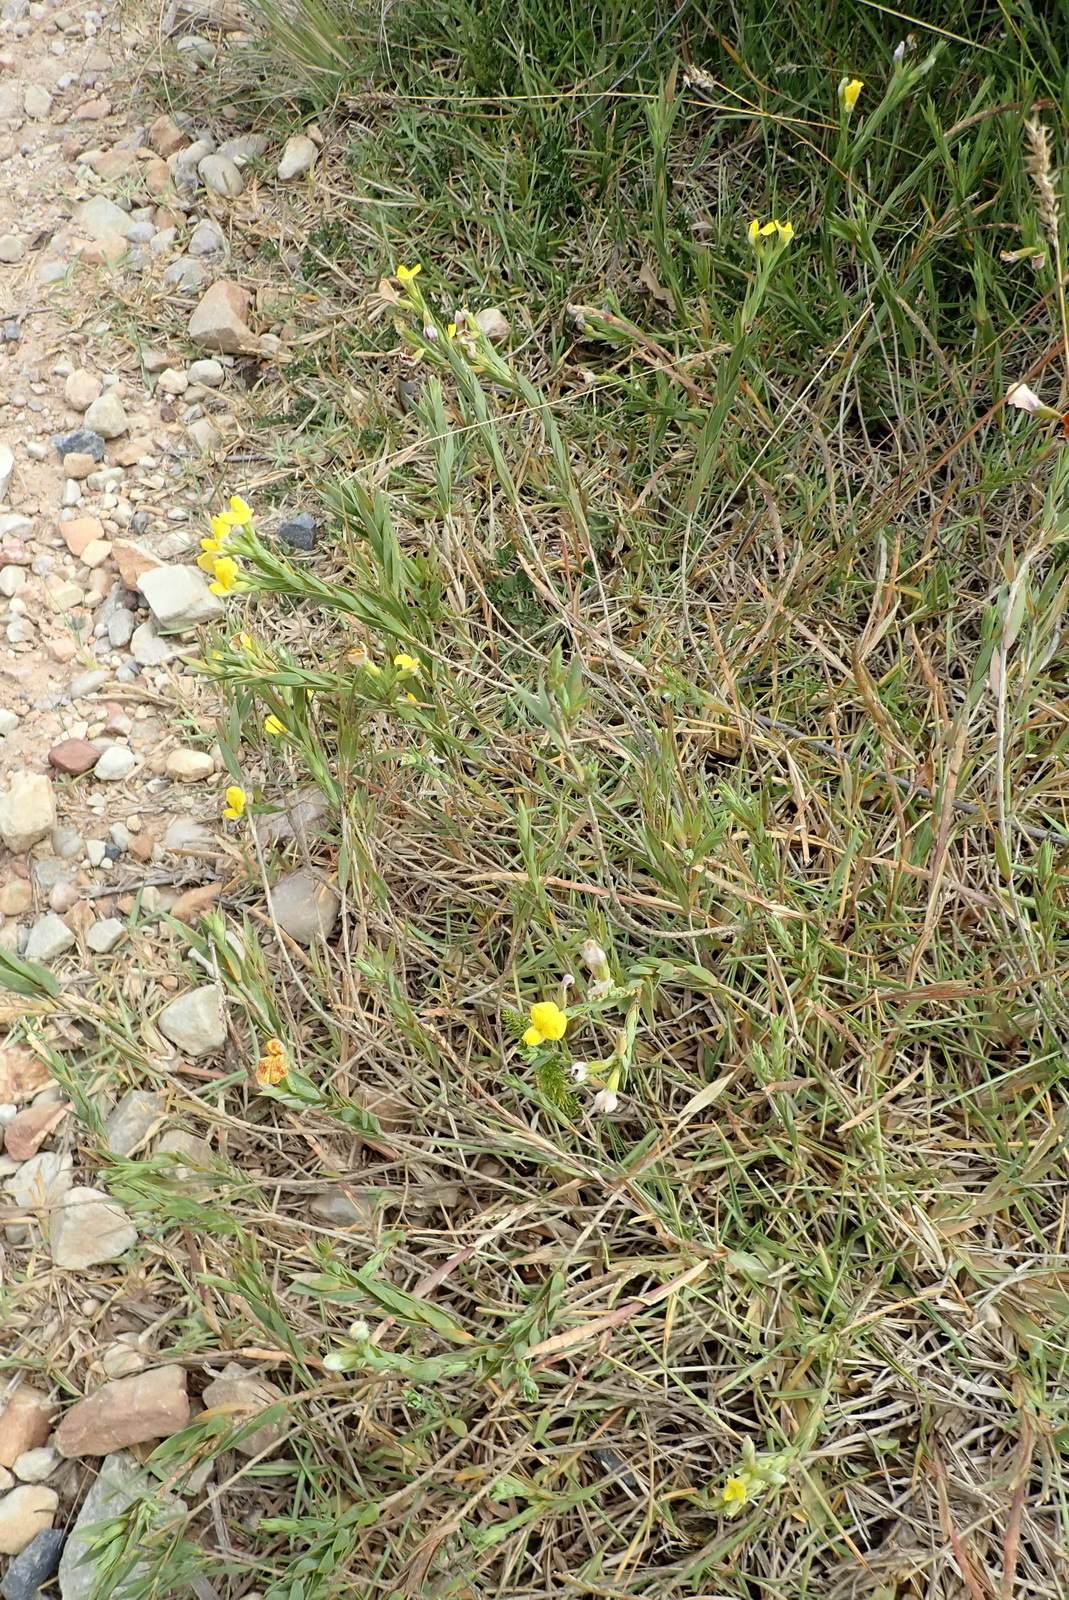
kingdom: Plantae
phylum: Tracheophyta
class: Magnoliopsida
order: Fabales
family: Fabaceae
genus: Aspalathus
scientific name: Aspalathus angustifolia
